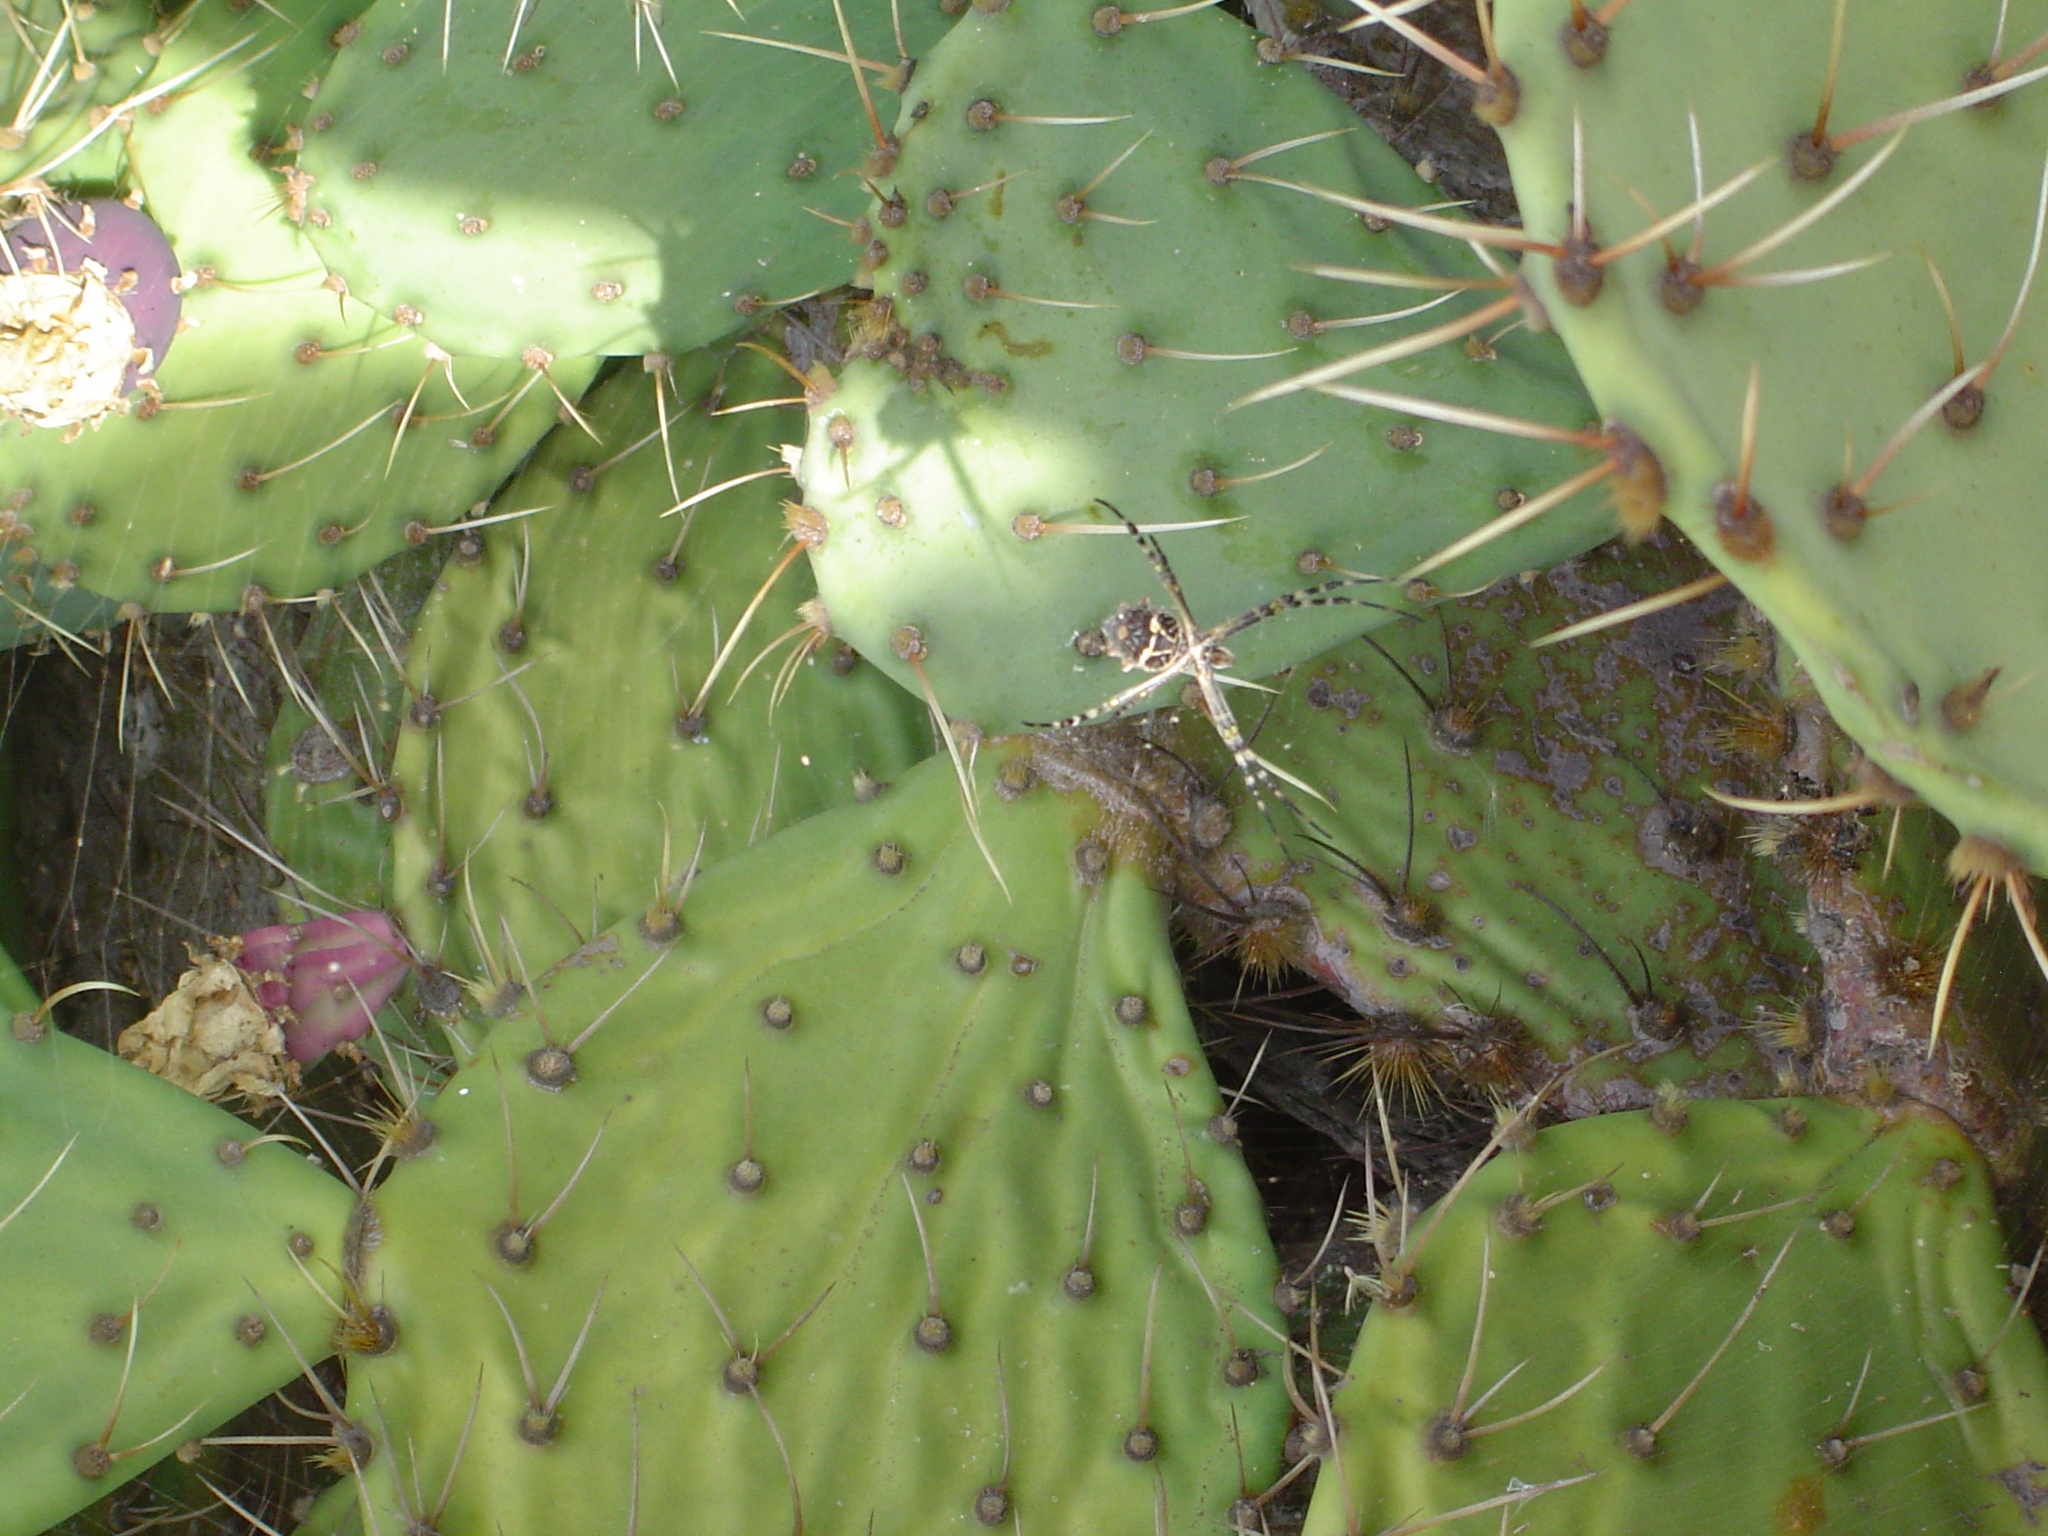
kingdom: Animalia
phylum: Arthropoda
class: Arachnida
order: Araneae
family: Araneidae
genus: Argiope
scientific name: Argiope argentata
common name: Orb weavers
